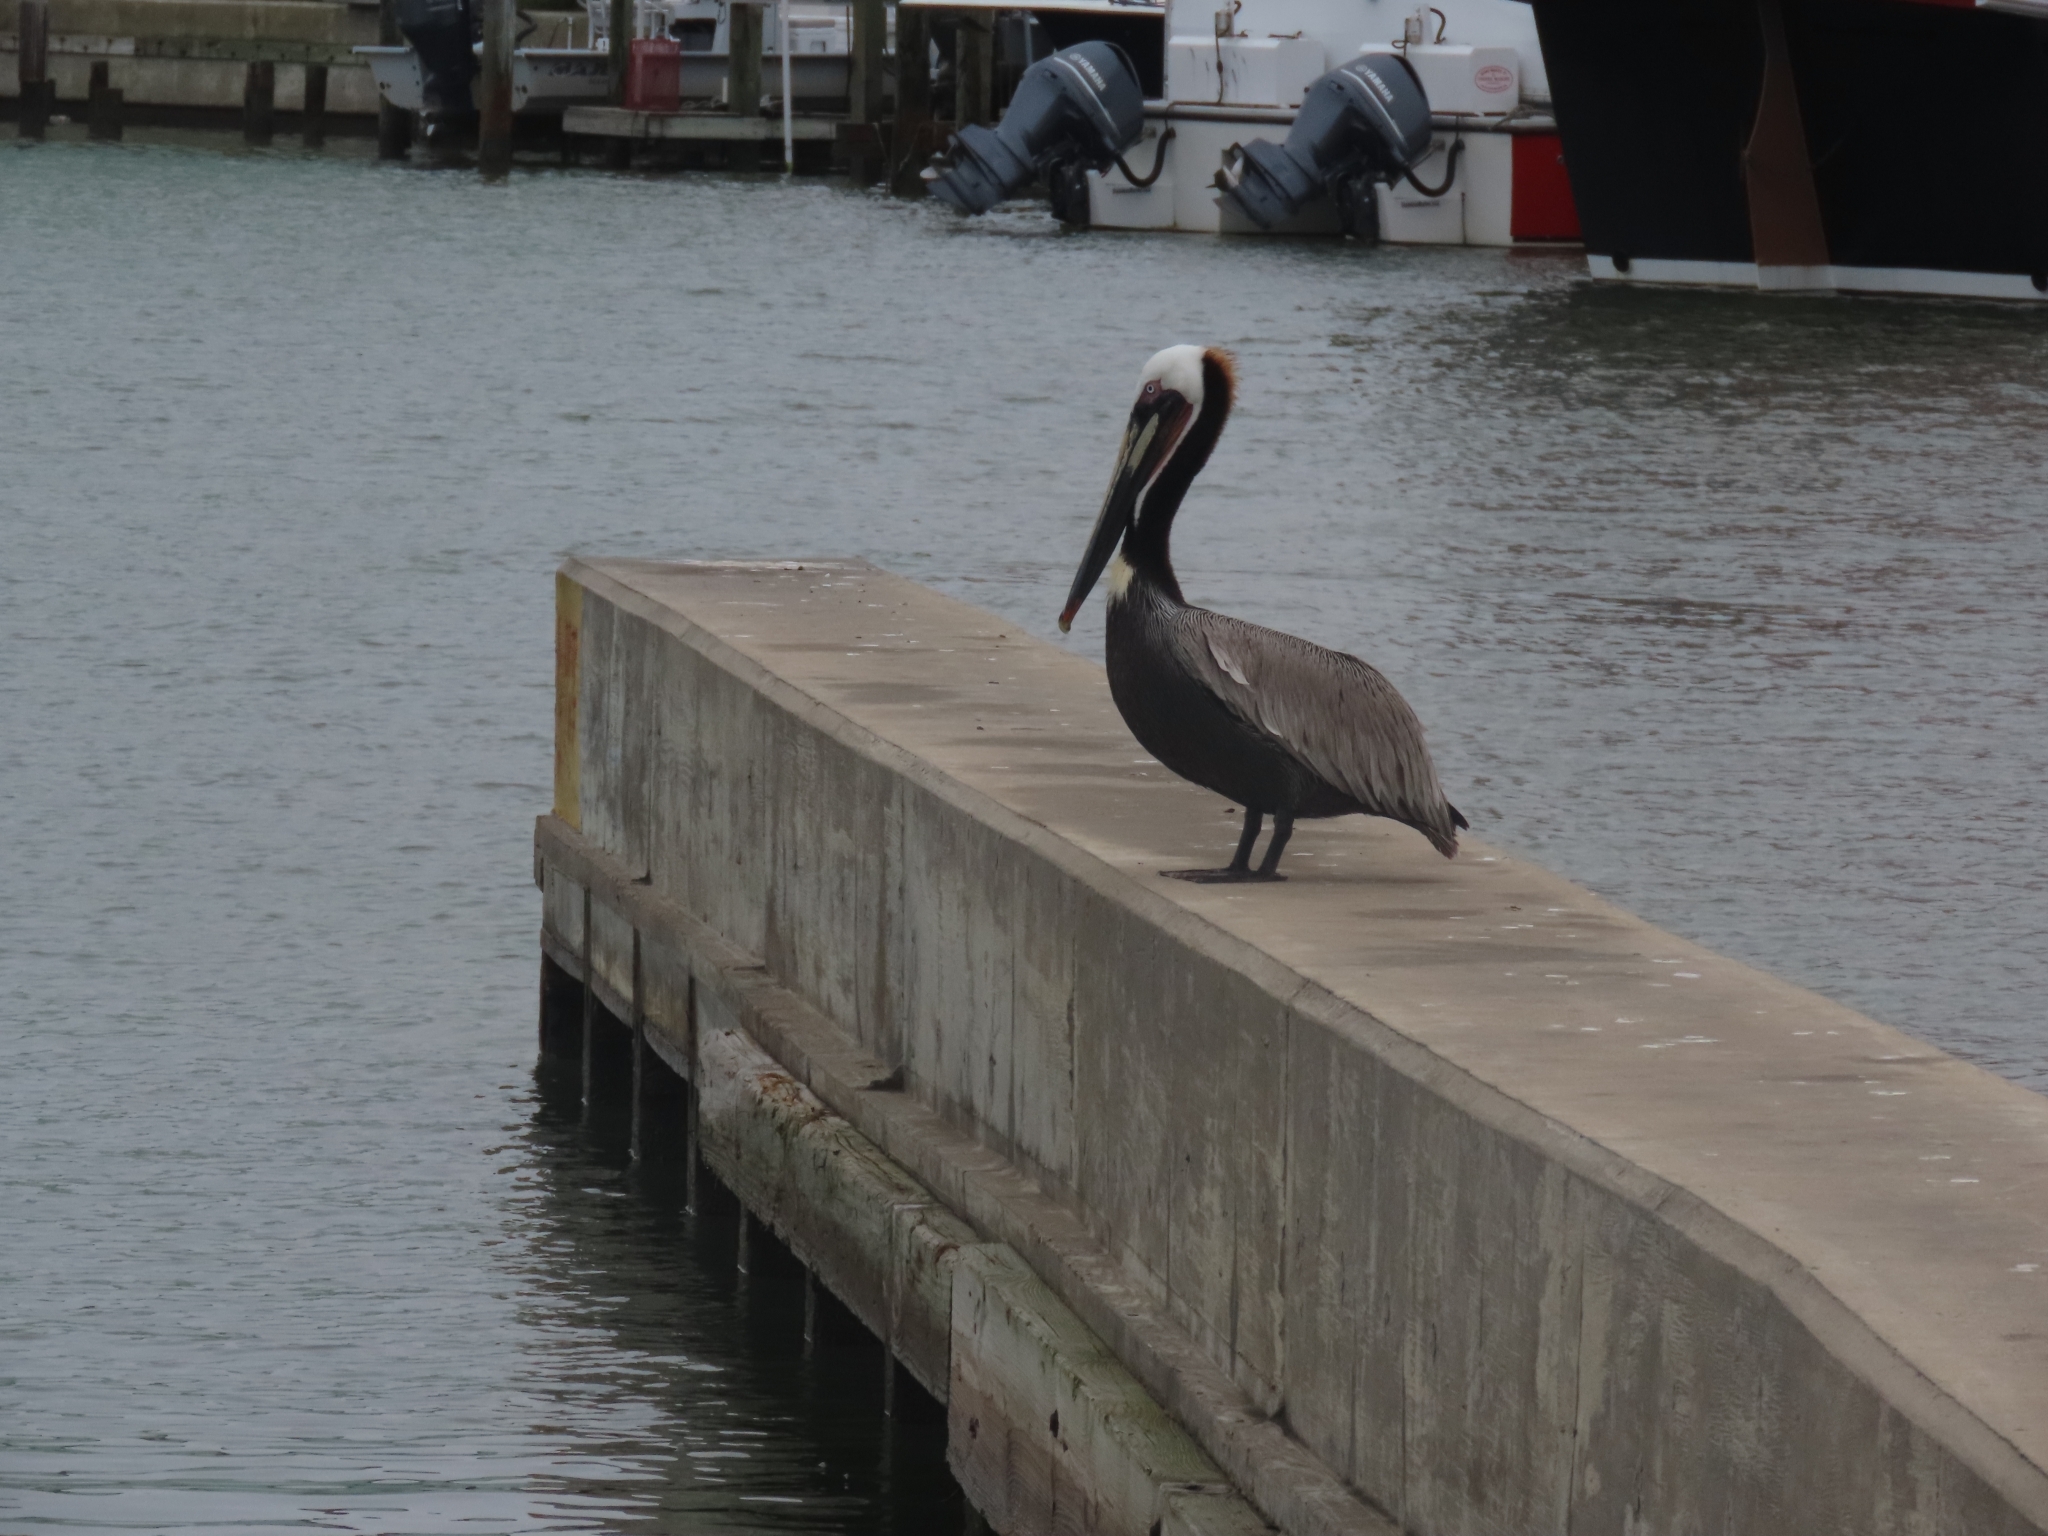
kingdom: Animalia
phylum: Chordata
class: Aves
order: Pelecaniformes
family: Pelecanidae
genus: Pelecanus
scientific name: Pelecanus occidentalis
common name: Brown pelican
